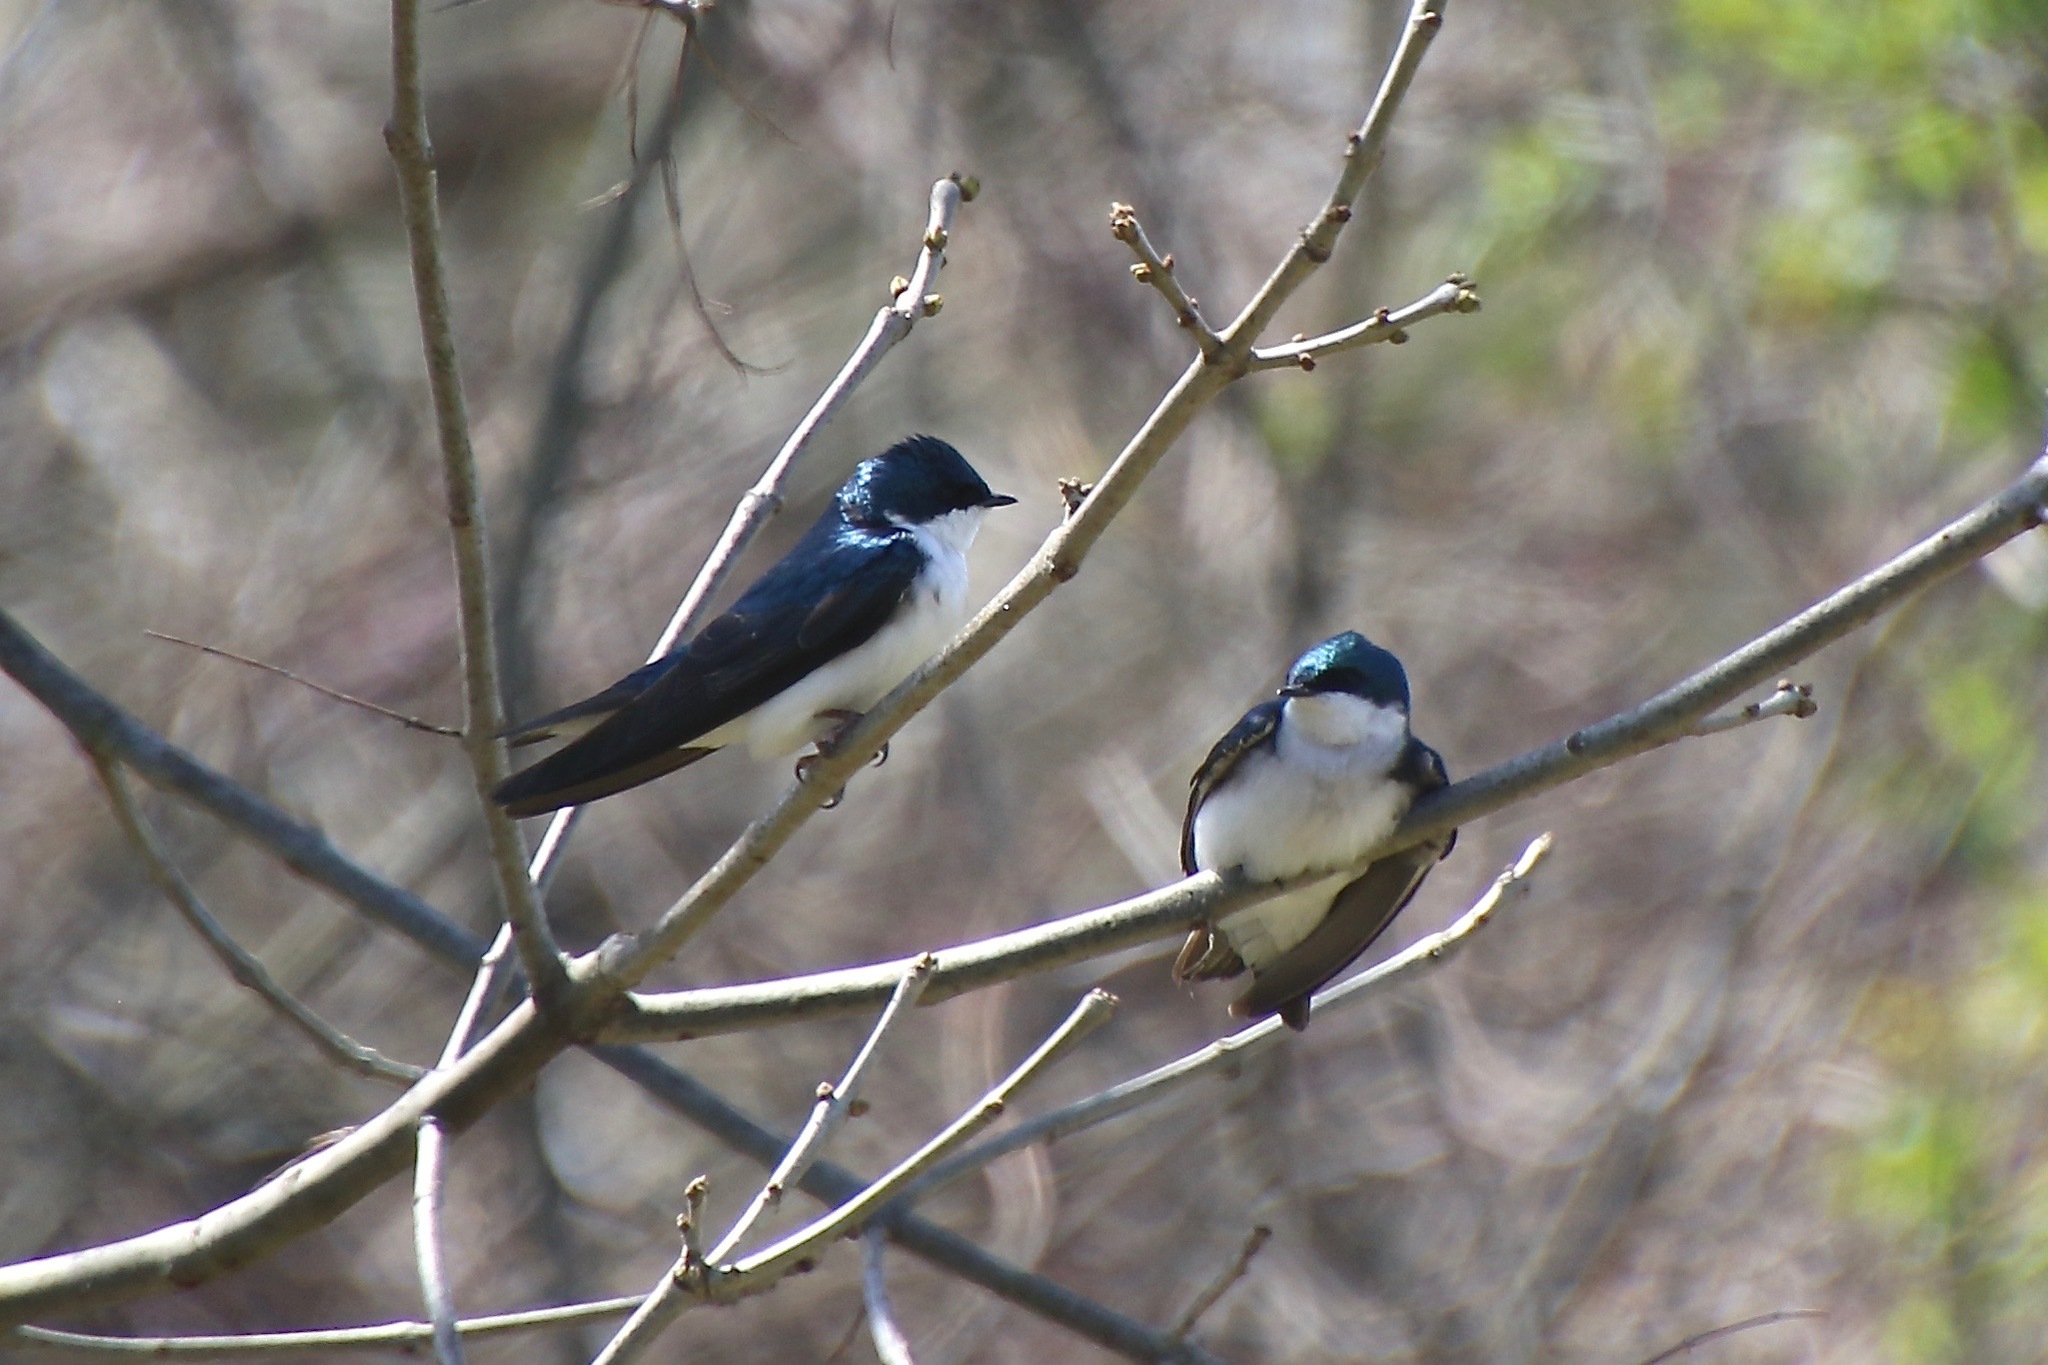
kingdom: Animalia
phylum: Chordata
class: Aves
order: Passeriformes
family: Hirundinidae
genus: Tachycineta
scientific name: Tachycineta bicolor
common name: Tree swallow
